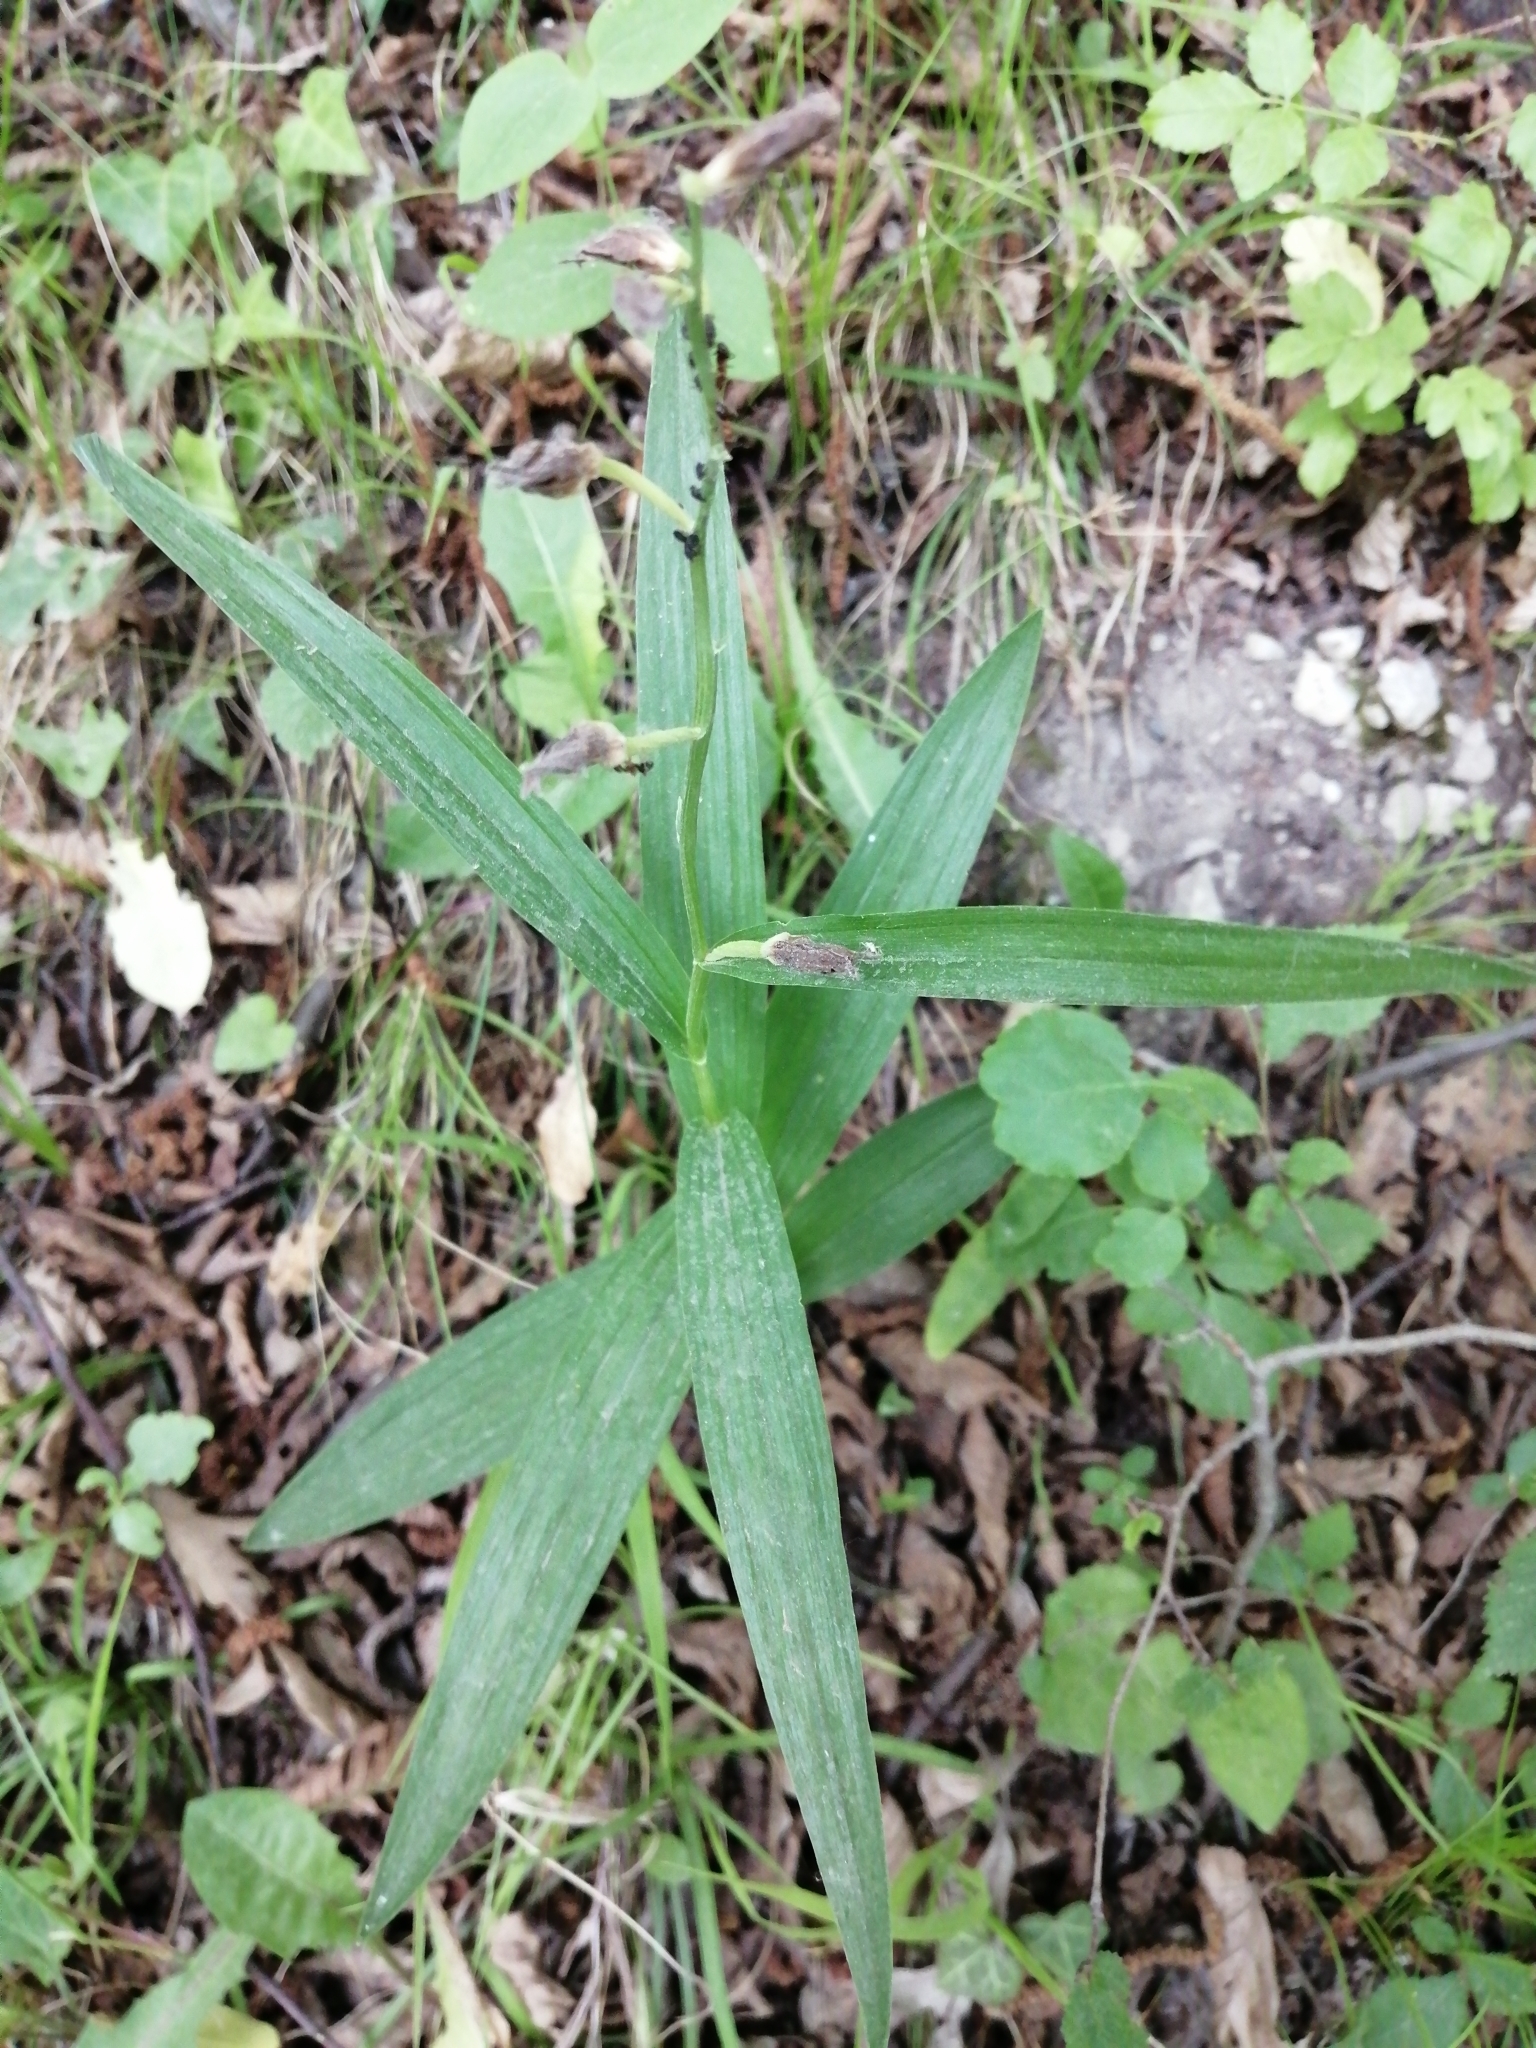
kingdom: Plantae
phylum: Tracheophyta
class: Liliopsida
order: Asparagales
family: Orchidaceae
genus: Cephalanthera
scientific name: Cephalanthera longifolia
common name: Narrow-leaved helleborine
